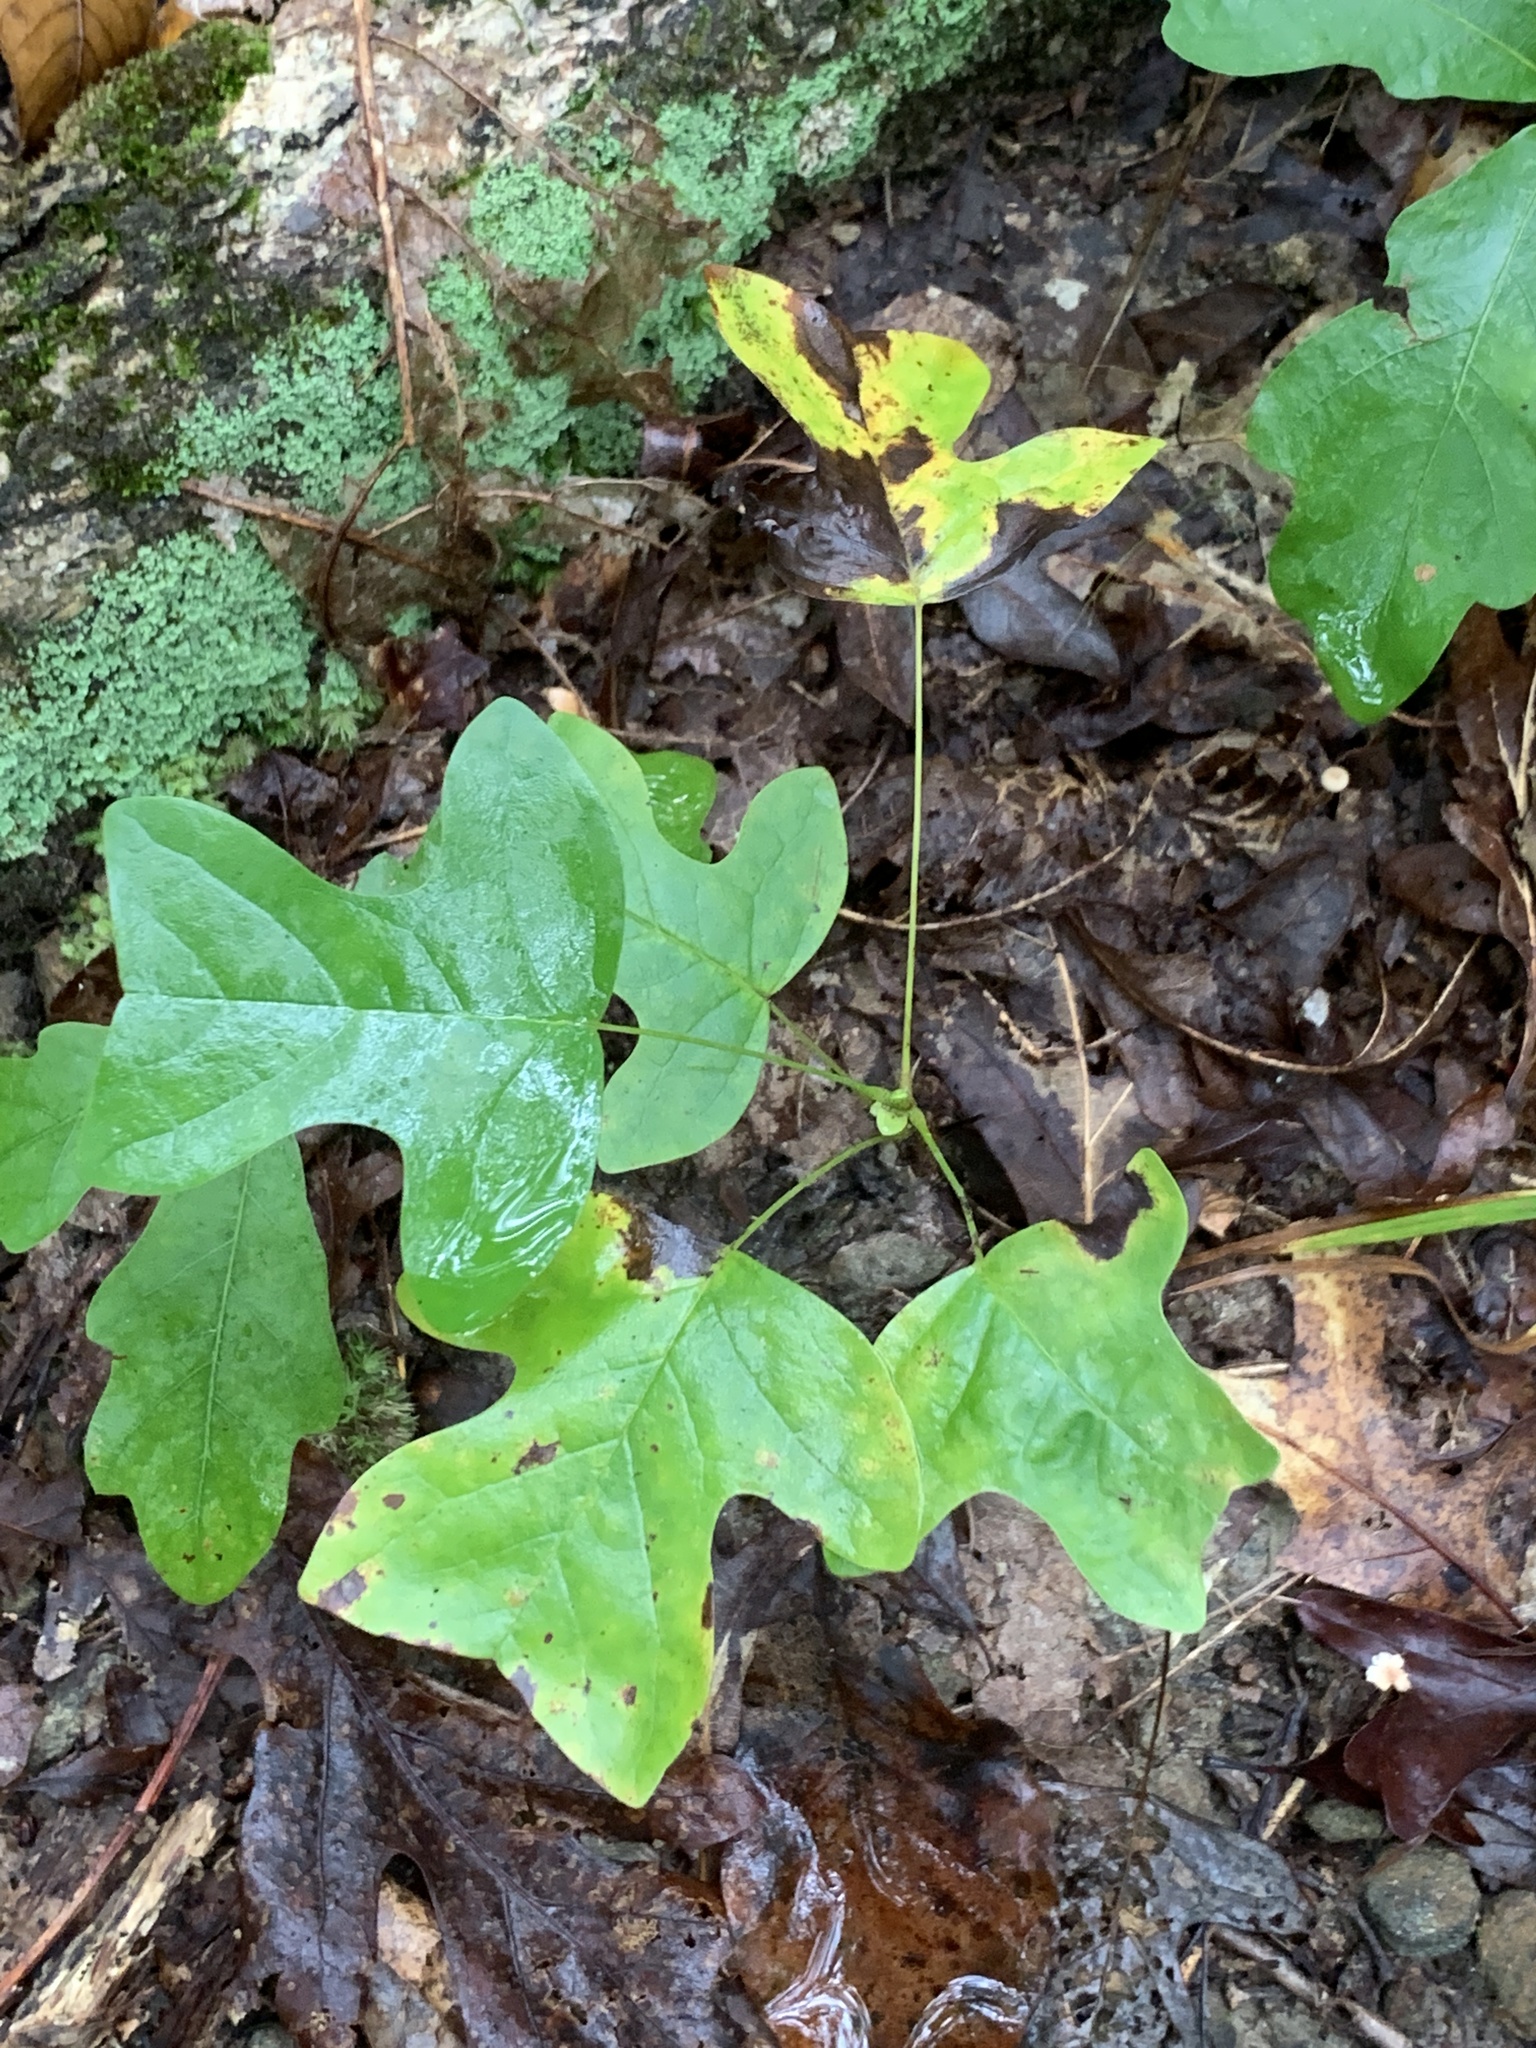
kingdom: Plantae
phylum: Tracheophyta
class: Magnoliopsida
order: Magnoliales
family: Magnoliaceae
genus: Liriodendron
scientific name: Liriodendron tulipifera
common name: Tulip tree
